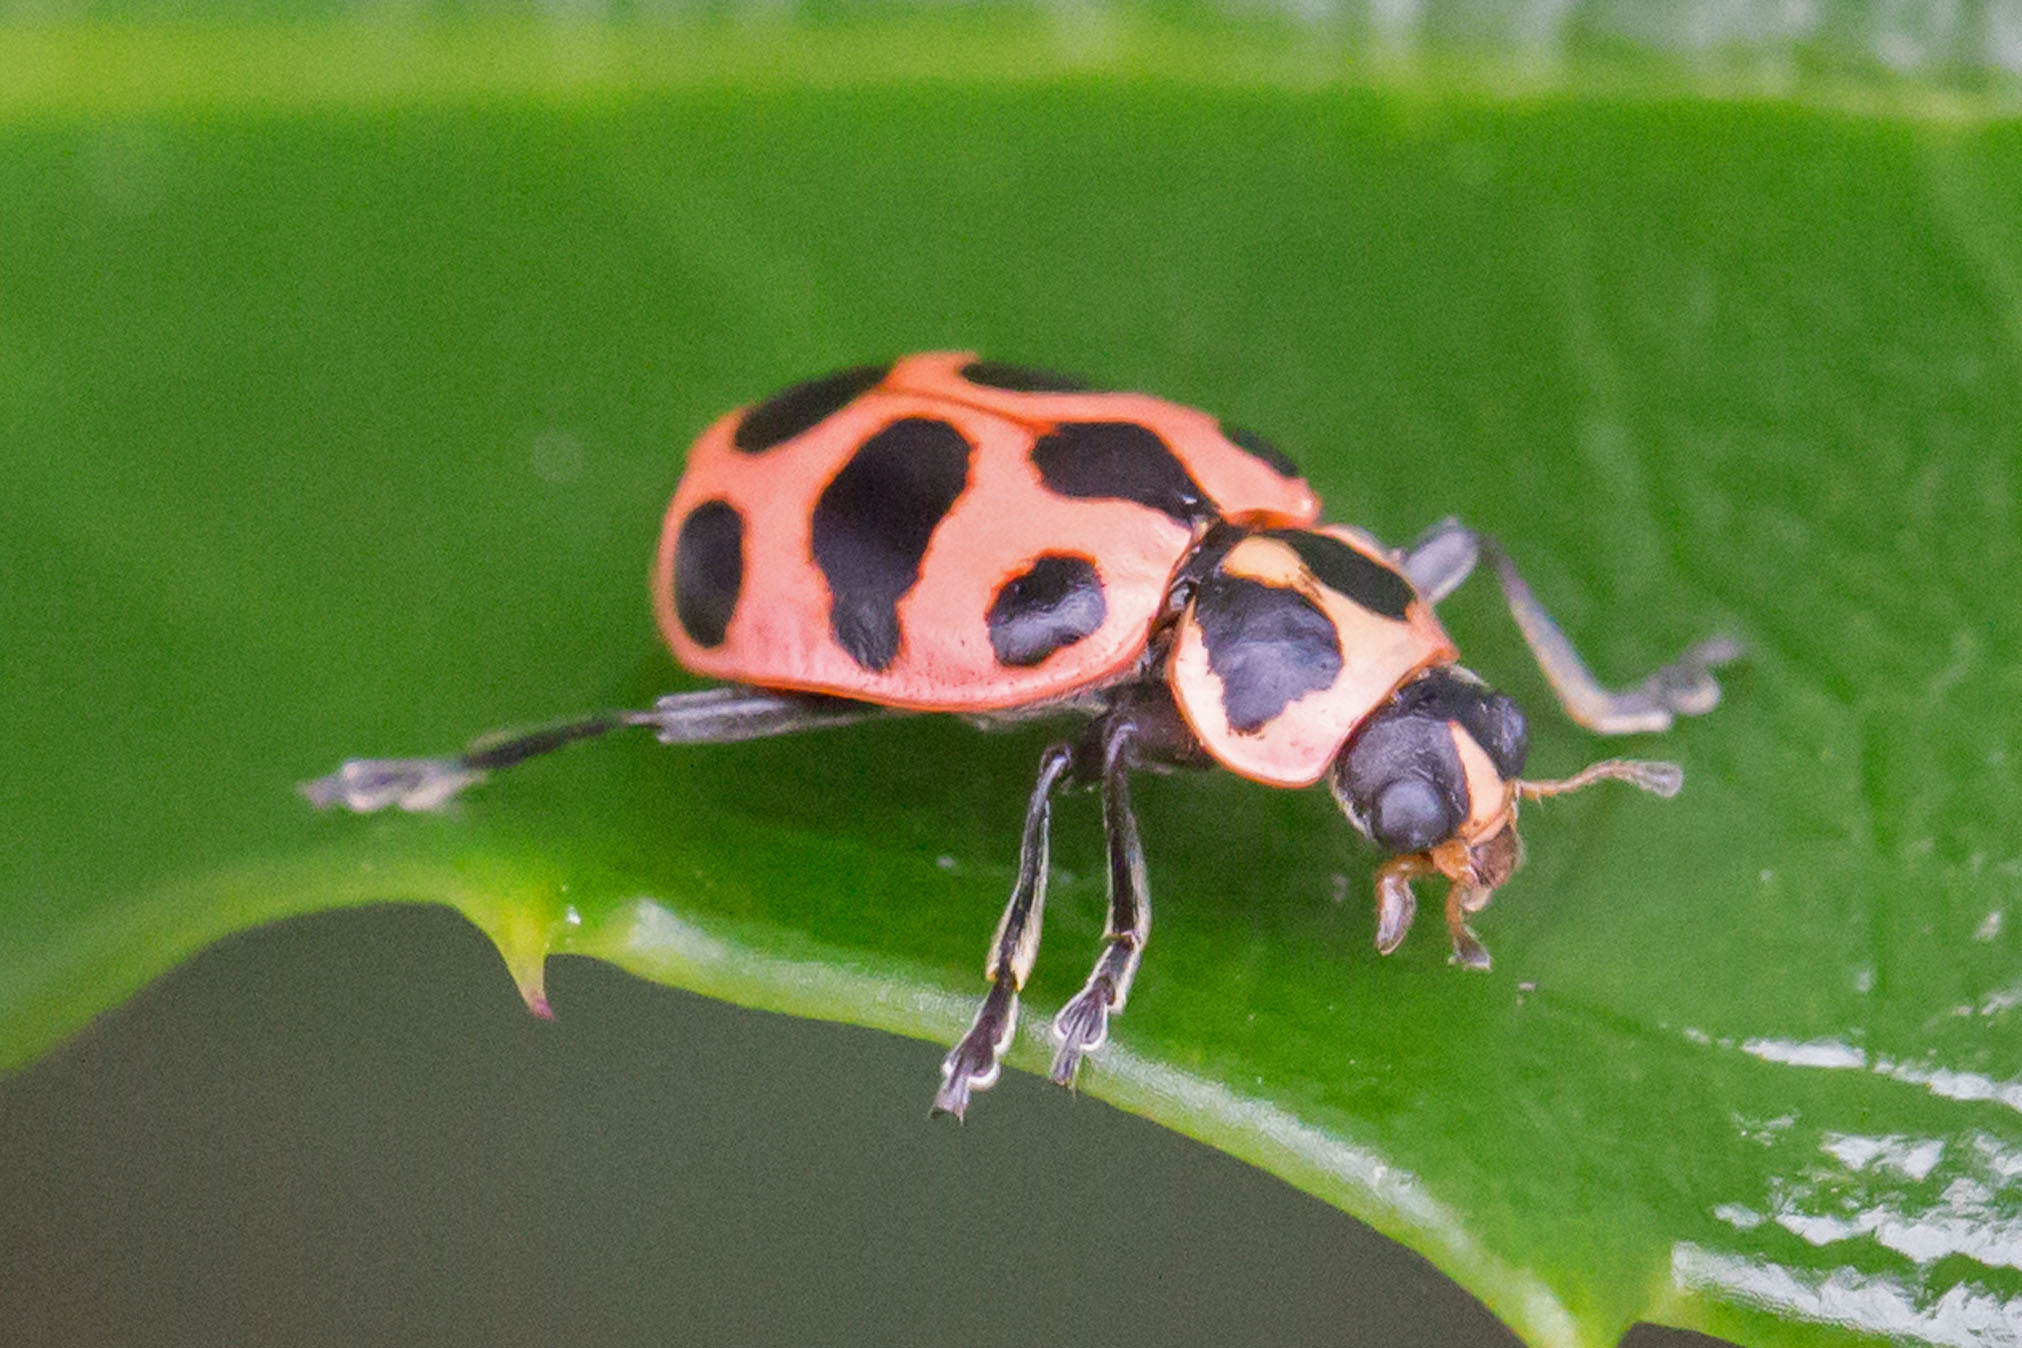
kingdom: Animalia
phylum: Arthropoda
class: Insecta
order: Coleoptera
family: Coccinellidae
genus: Coleomegilla
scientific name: Coleomegilla maculata
